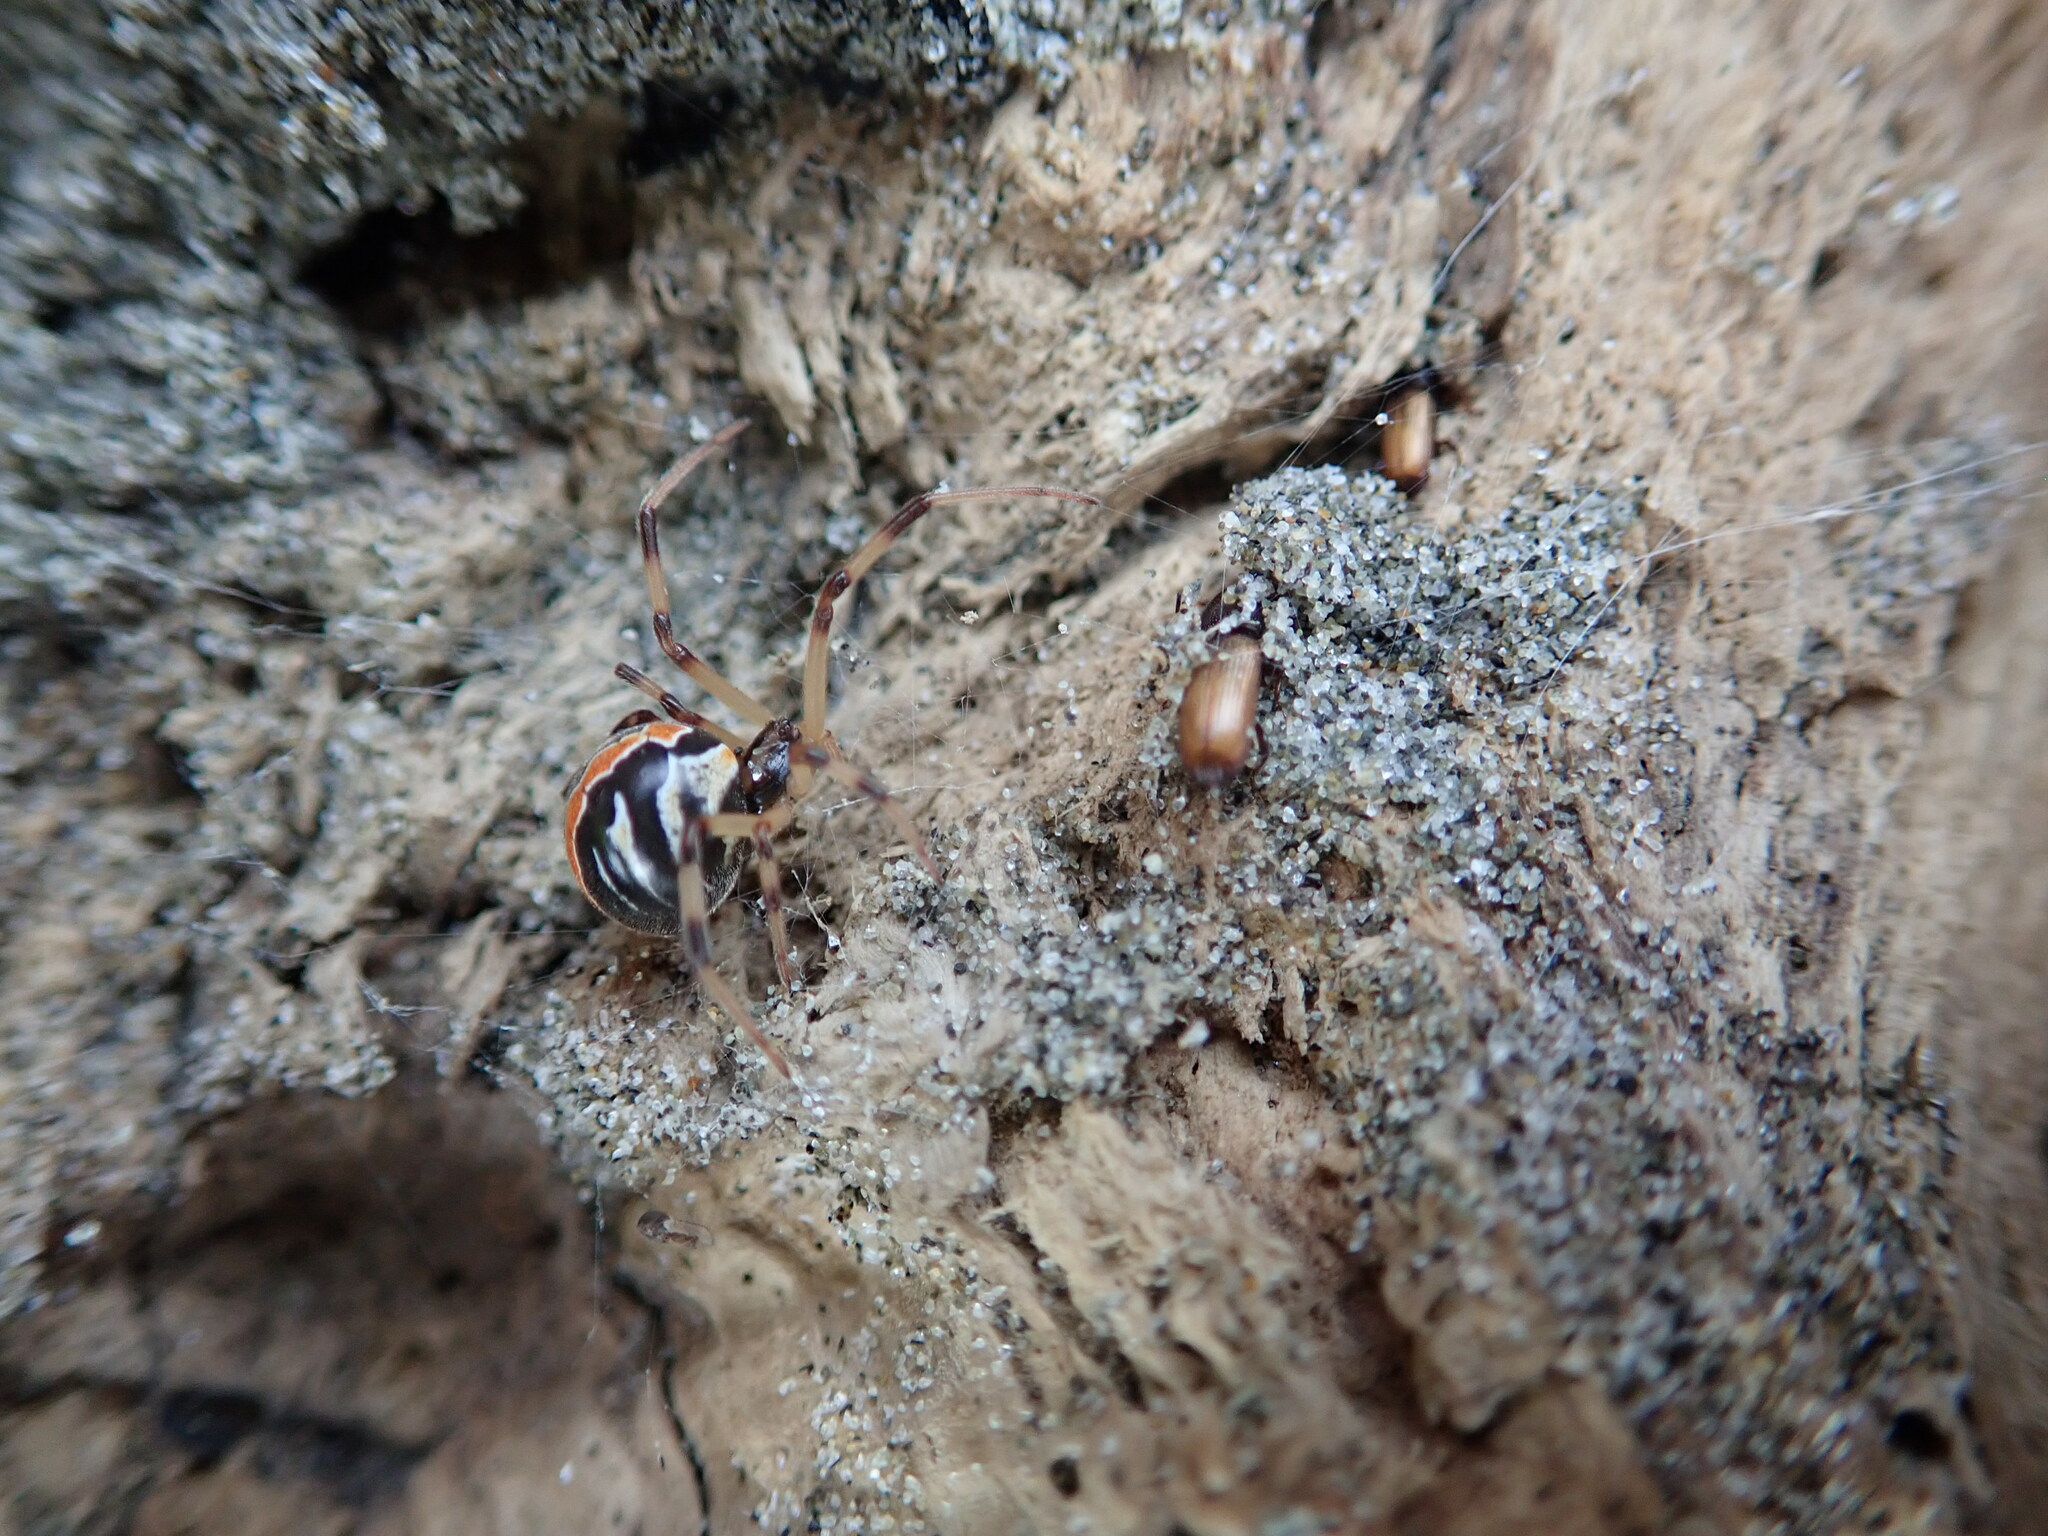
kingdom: Animalia
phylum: Arthropoda
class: Insecta
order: Coleoptera
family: Curculionidae
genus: Mesites
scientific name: Mesites pallidipennis
